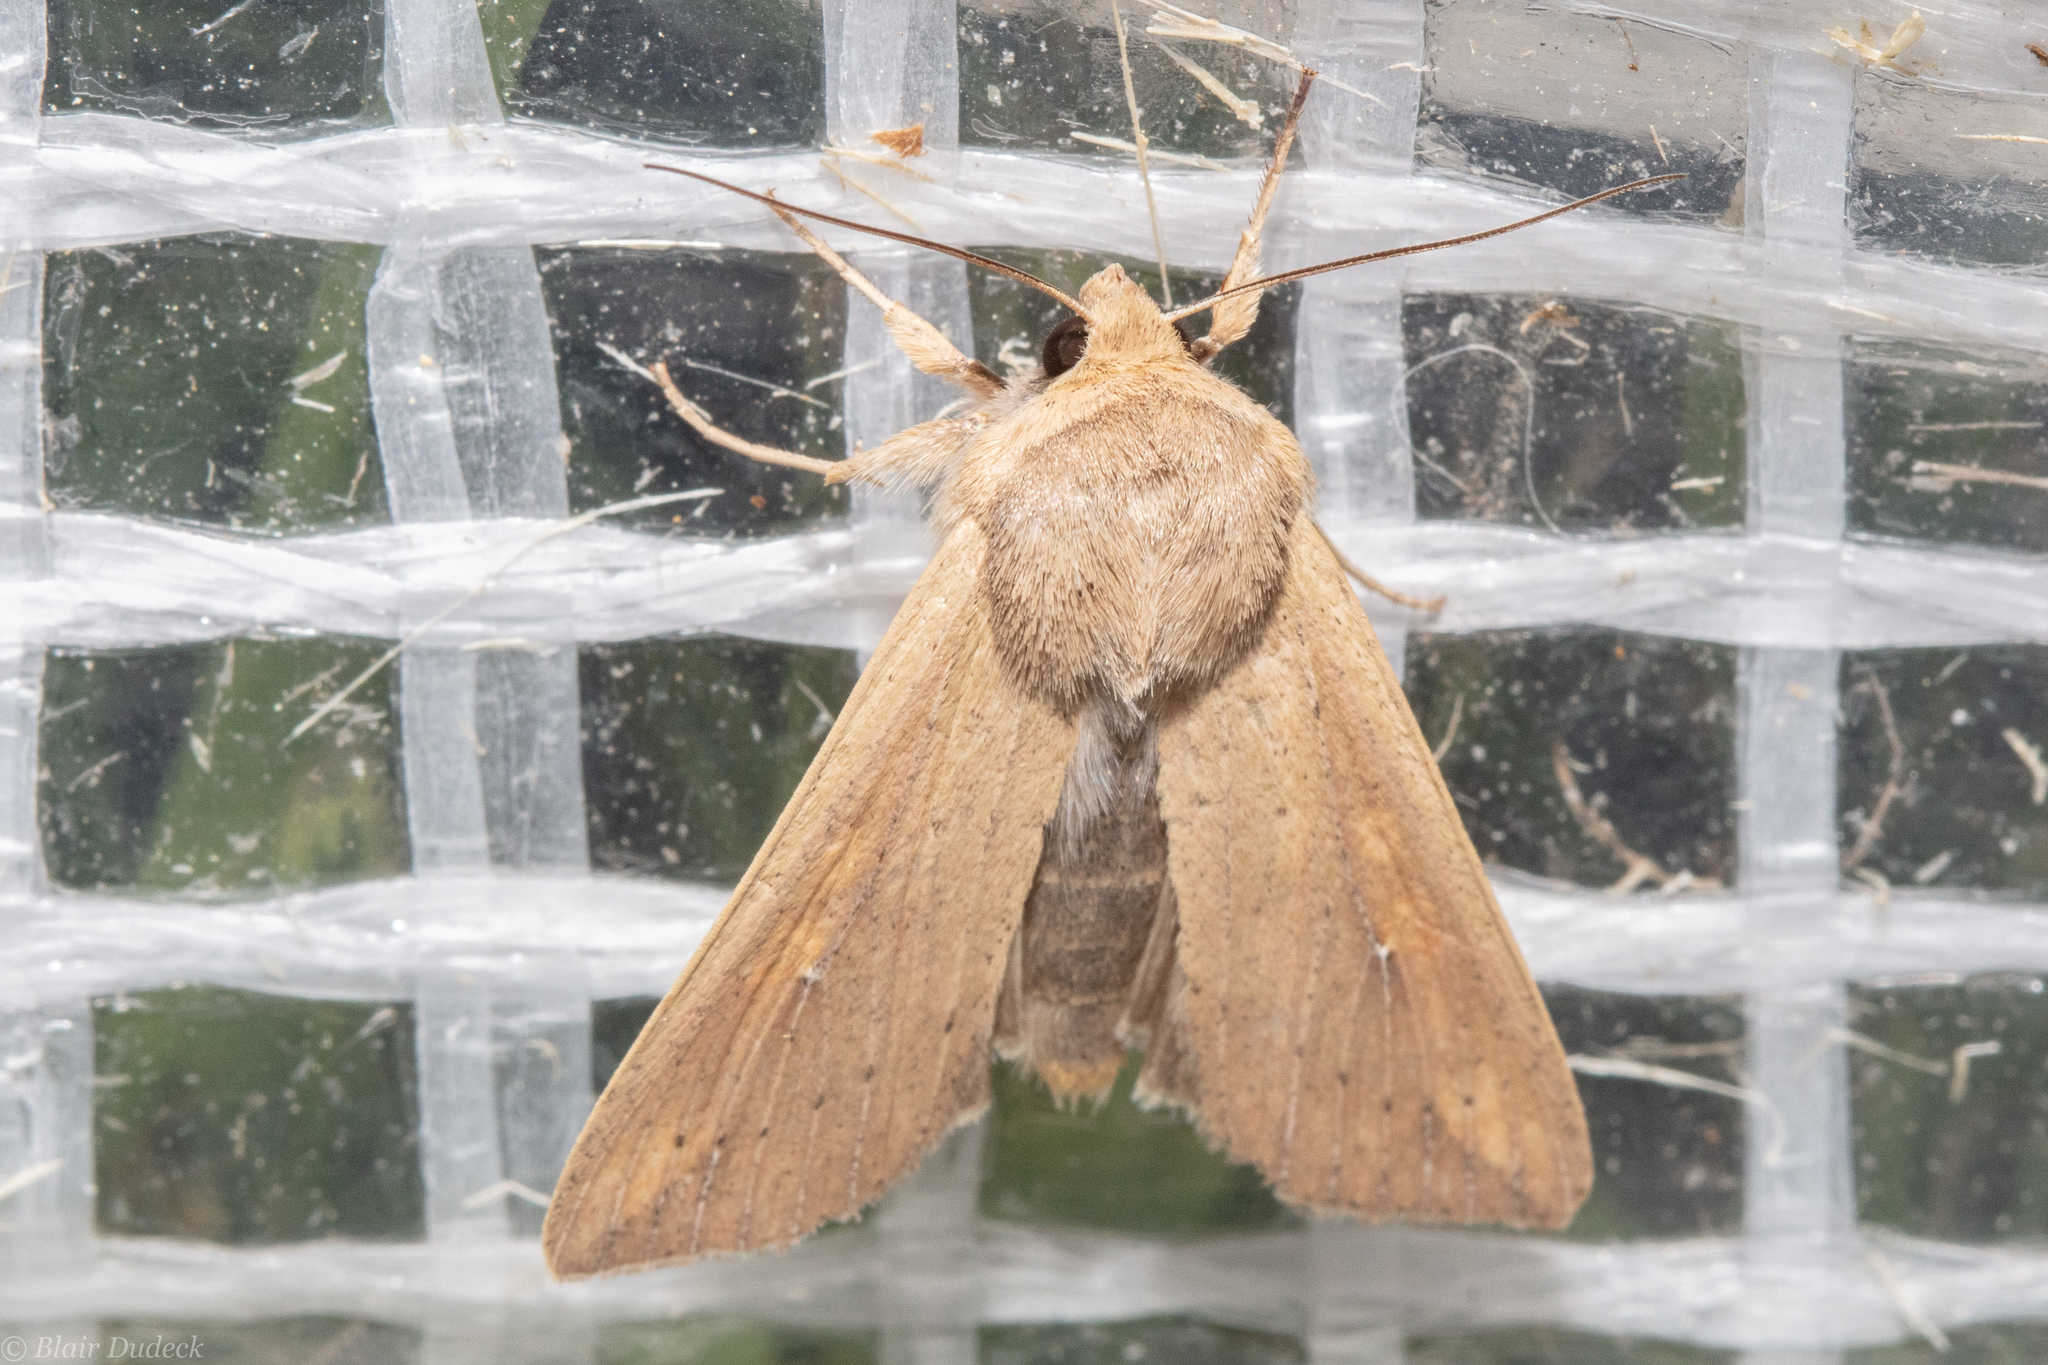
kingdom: Animalia
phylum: Arthropoda
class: Insecta
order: Lepidoptera
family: Noctuidae
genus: Mythimna
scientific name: Mythimna unipuncta
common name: White-speck
